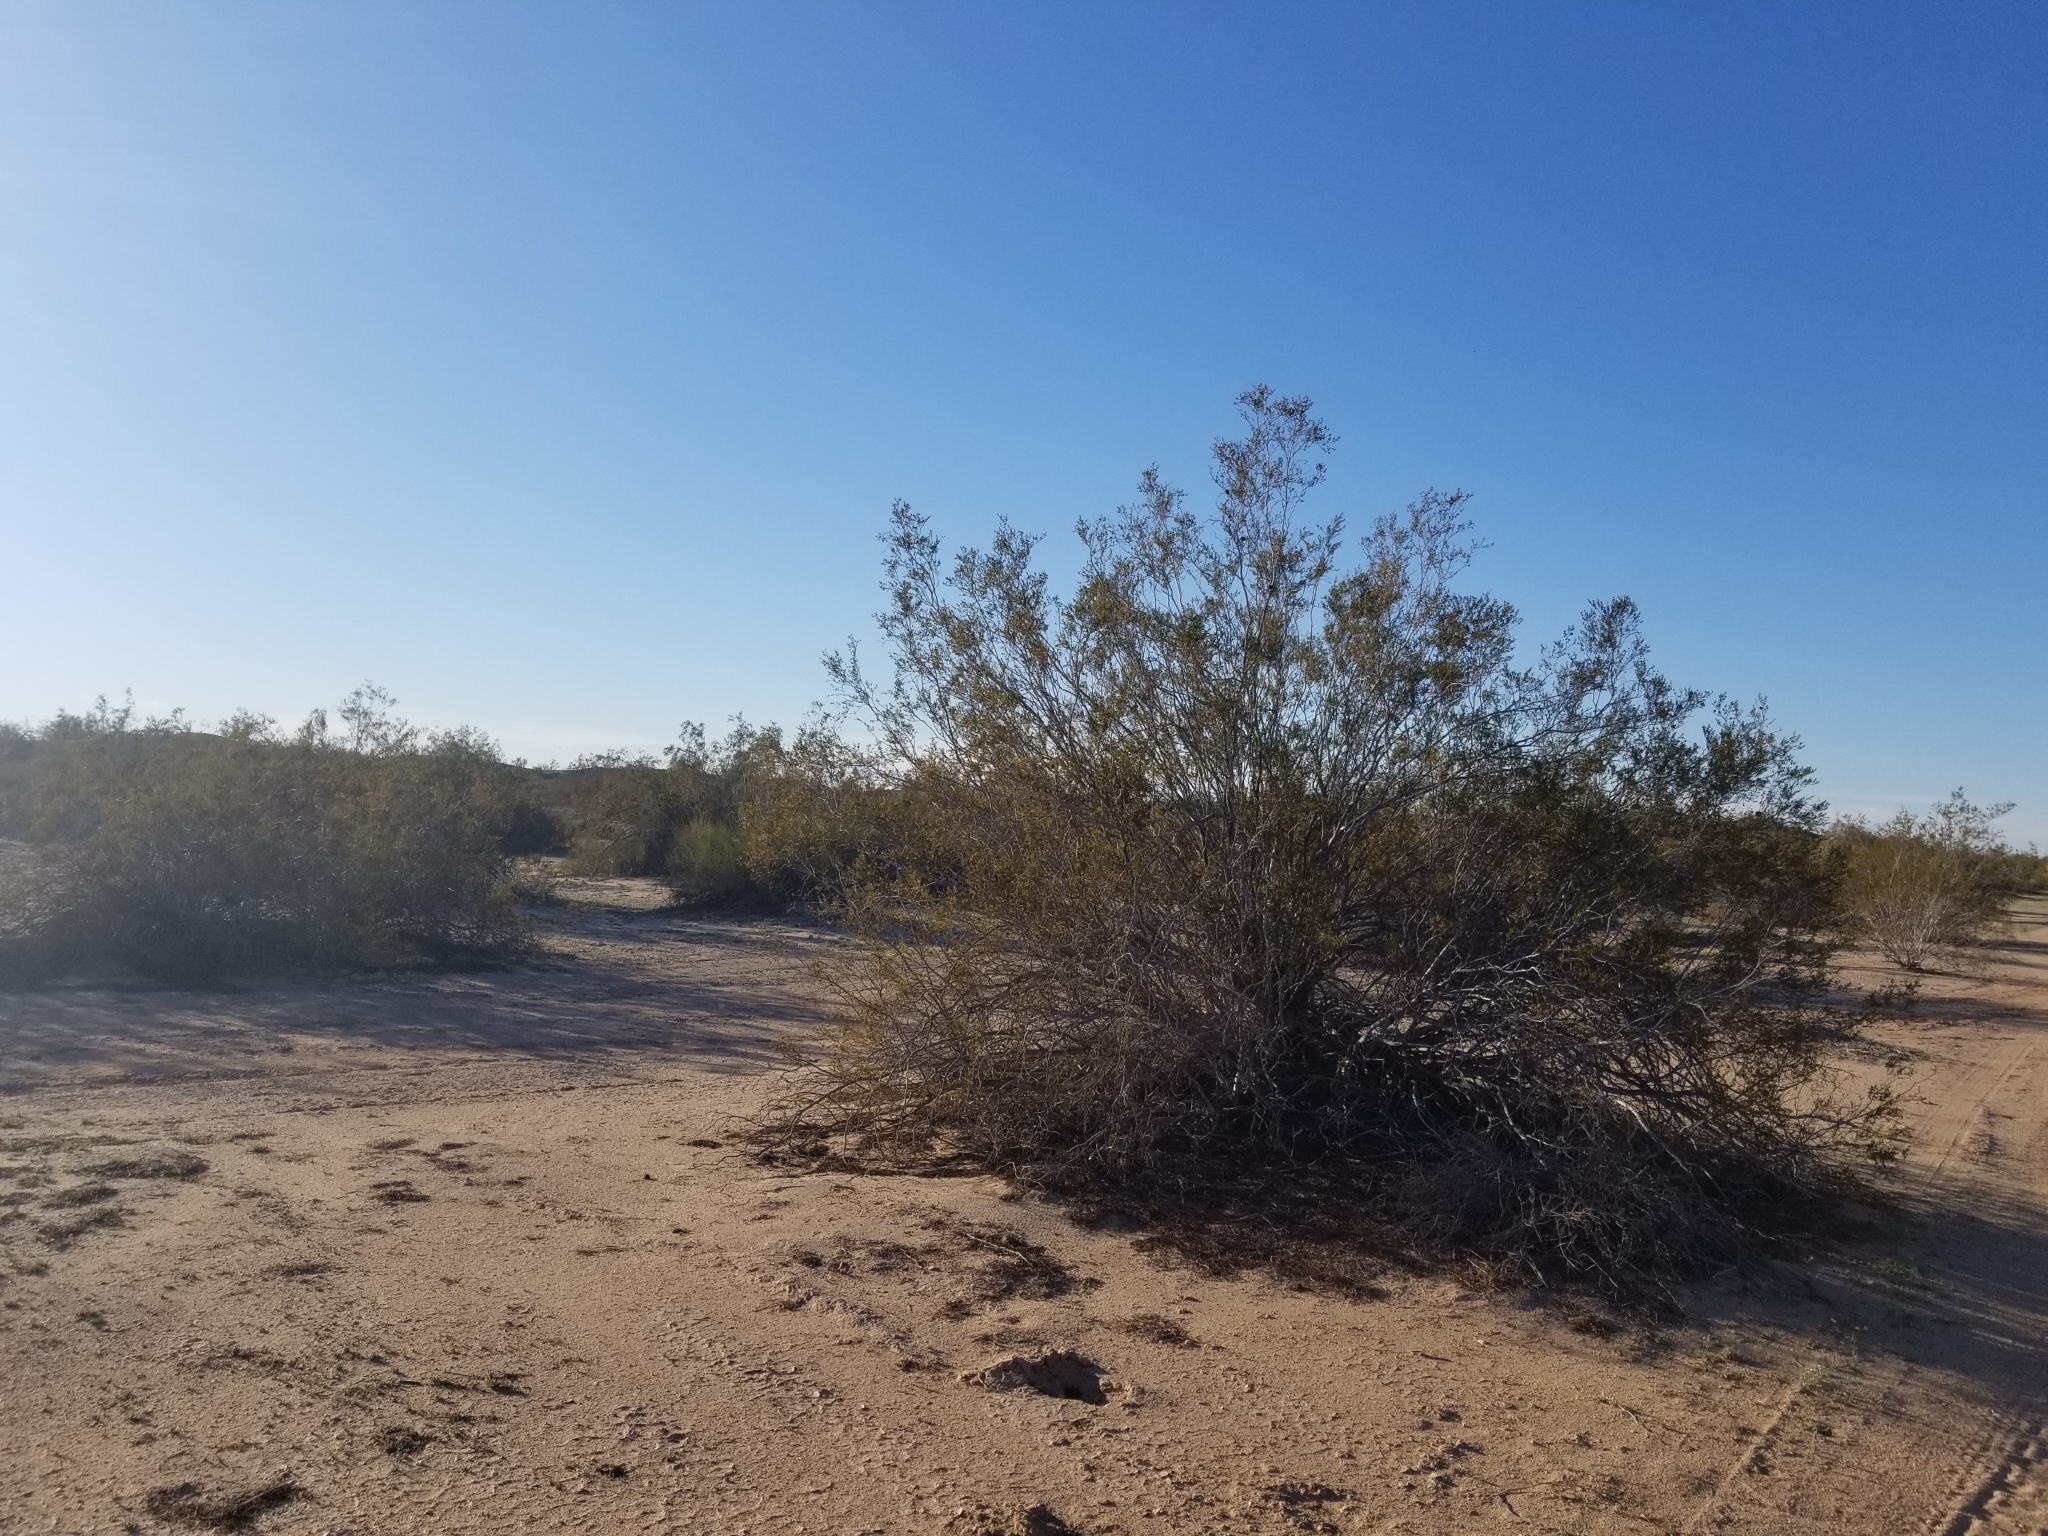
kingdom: Plantae
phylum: Tracheophyta
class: Magnoliopsida
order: Zygophyllales
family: Zygophyllaceae
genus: Larrea
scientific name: Larrea tridentata
